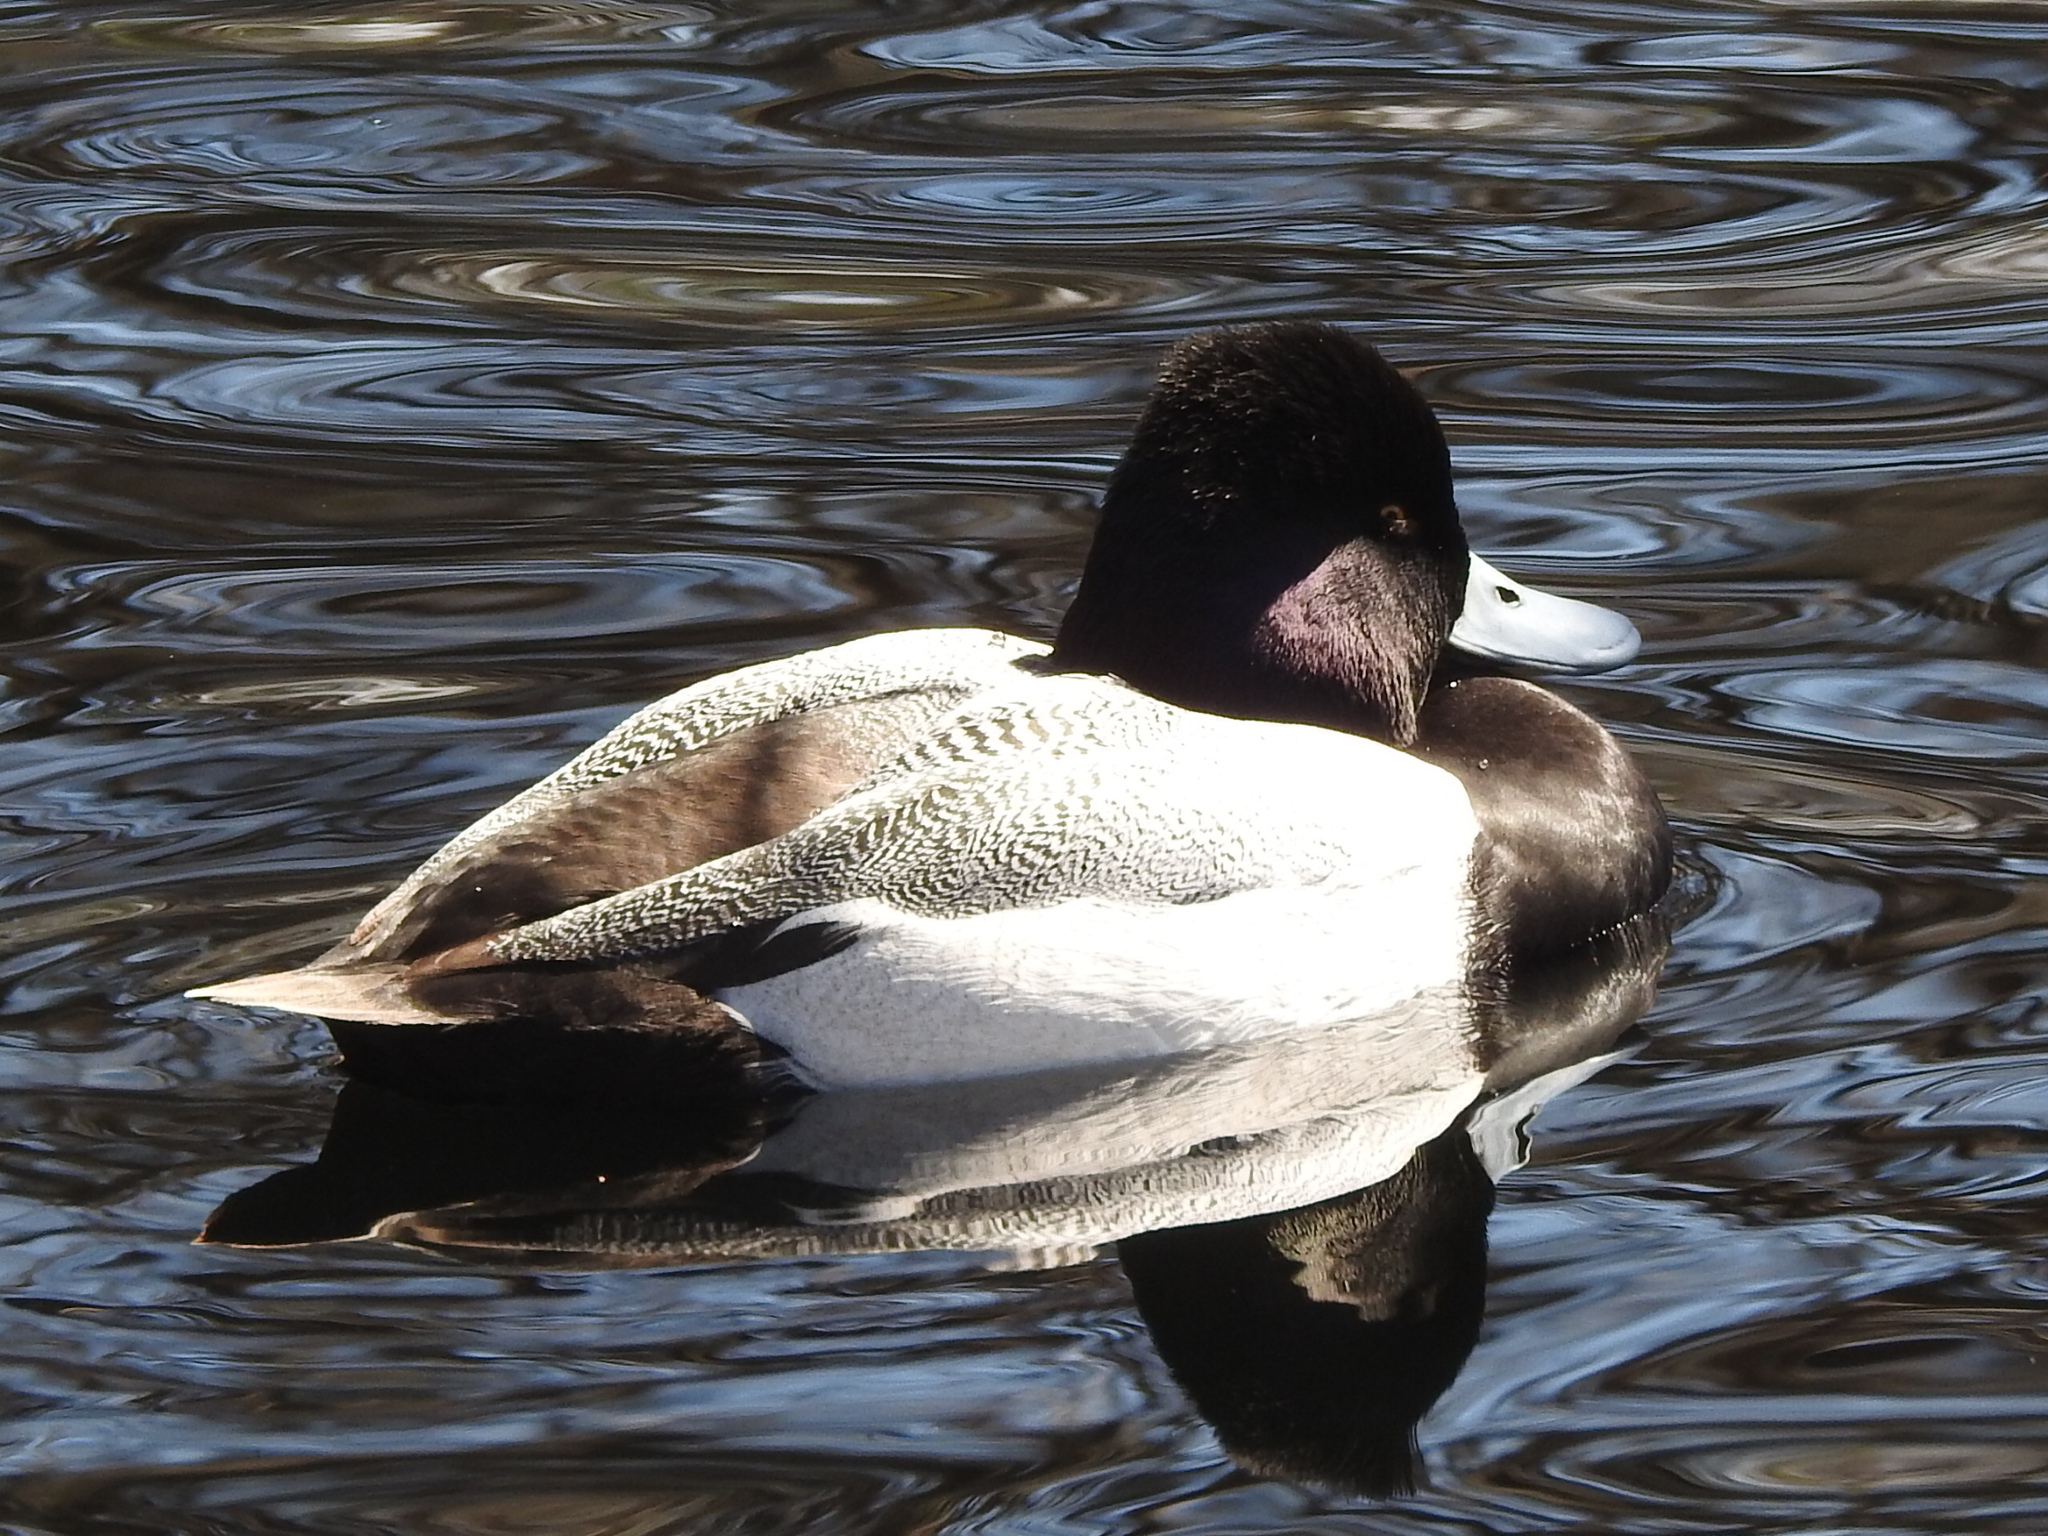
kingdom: Animalia
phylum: Chordata
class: Aves
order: Anseriformes
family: Anatidae
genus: Aythya
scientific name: Aythya affinis
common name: Lesser scaup
